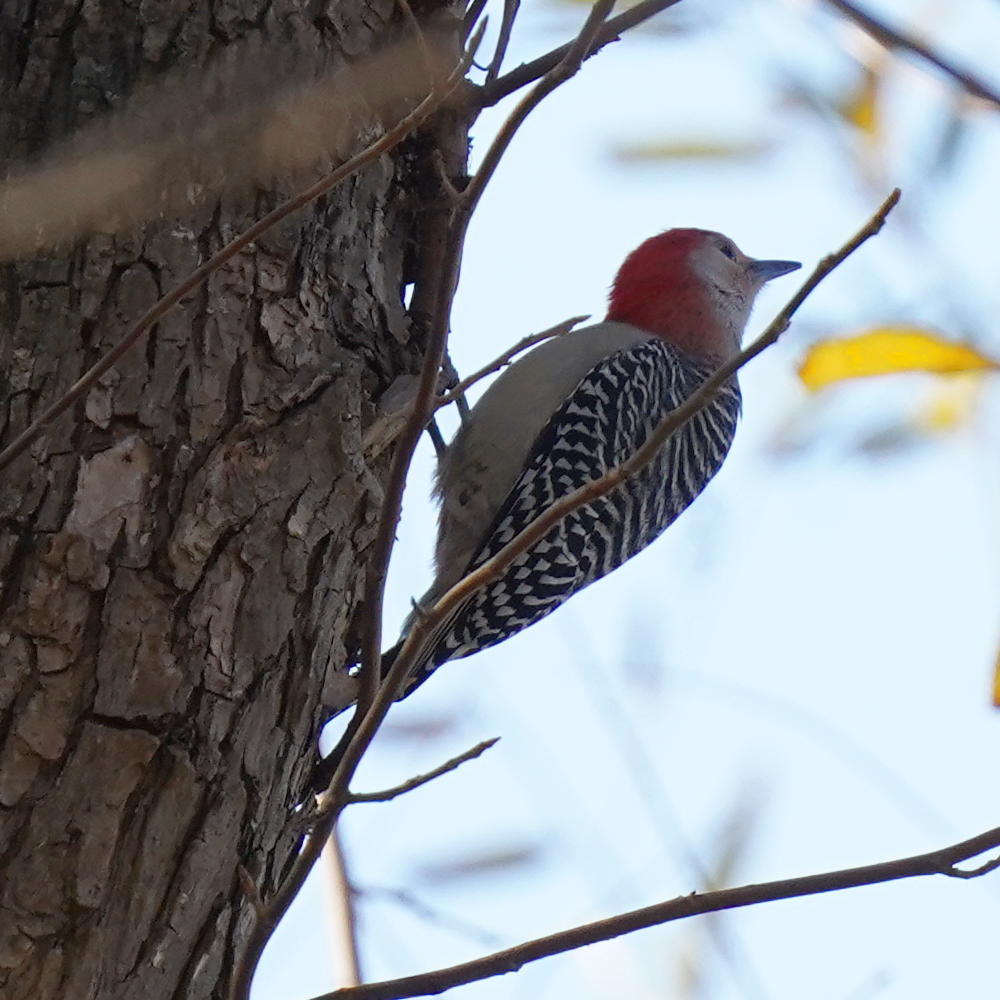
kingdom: Animalia
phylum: Chordata
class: Aves
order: Piciformes
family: Picidae
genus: Melanerpes
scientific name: Melanerpes carolinus
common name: Red-bellied woodpecker
